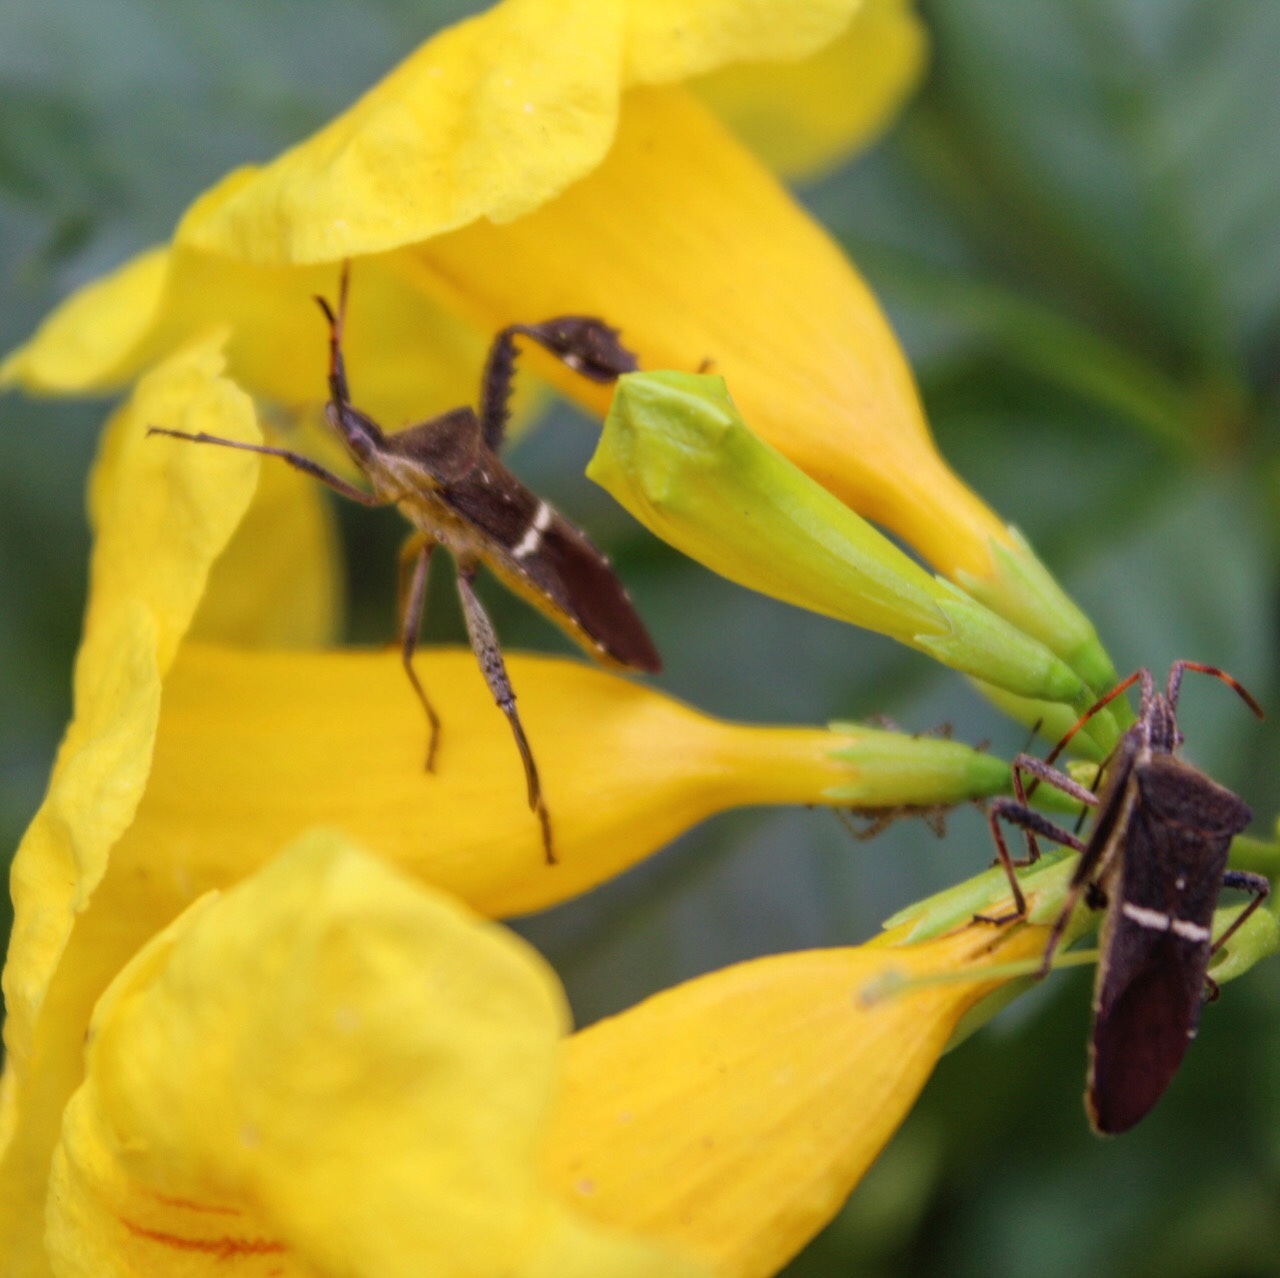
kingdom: Animalia
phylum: Arthropoda
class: Insecta
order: Hemiptera
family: Coreidae
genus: Leptoglossus
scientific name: Leptoglossus phyllopus
